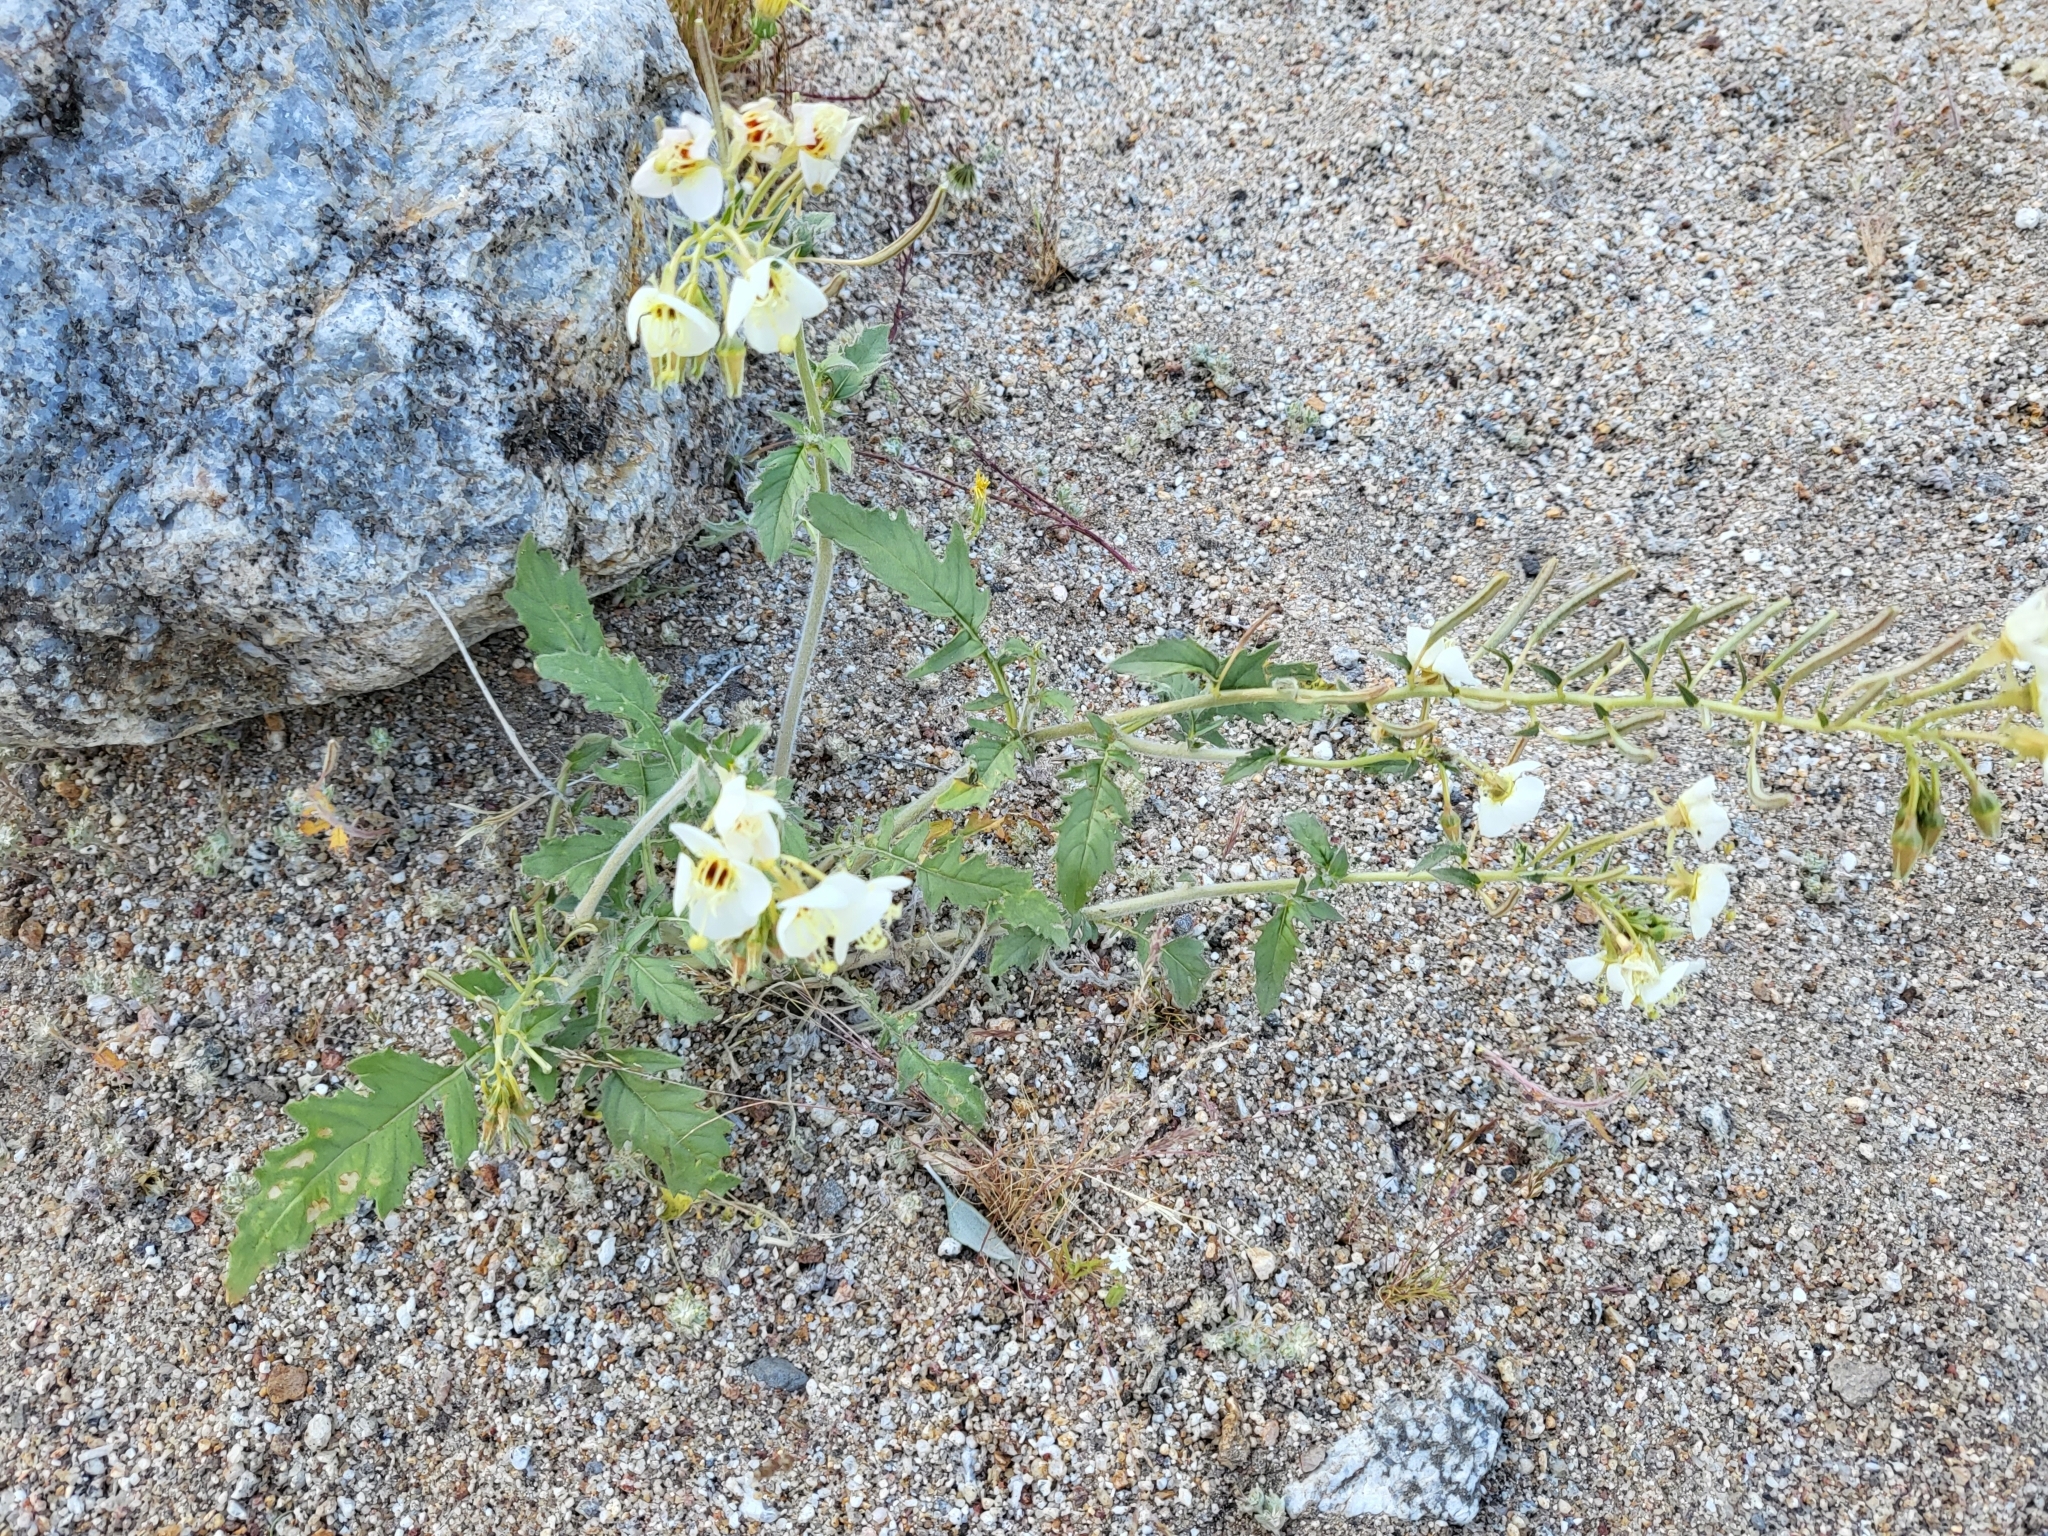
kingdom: Plantae
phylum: Tracheophyta
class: Magnoliopsida
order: Myrtales
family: Onagraceae
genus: Chylismia
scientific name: Chylismia claviformis
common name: Browneyes
